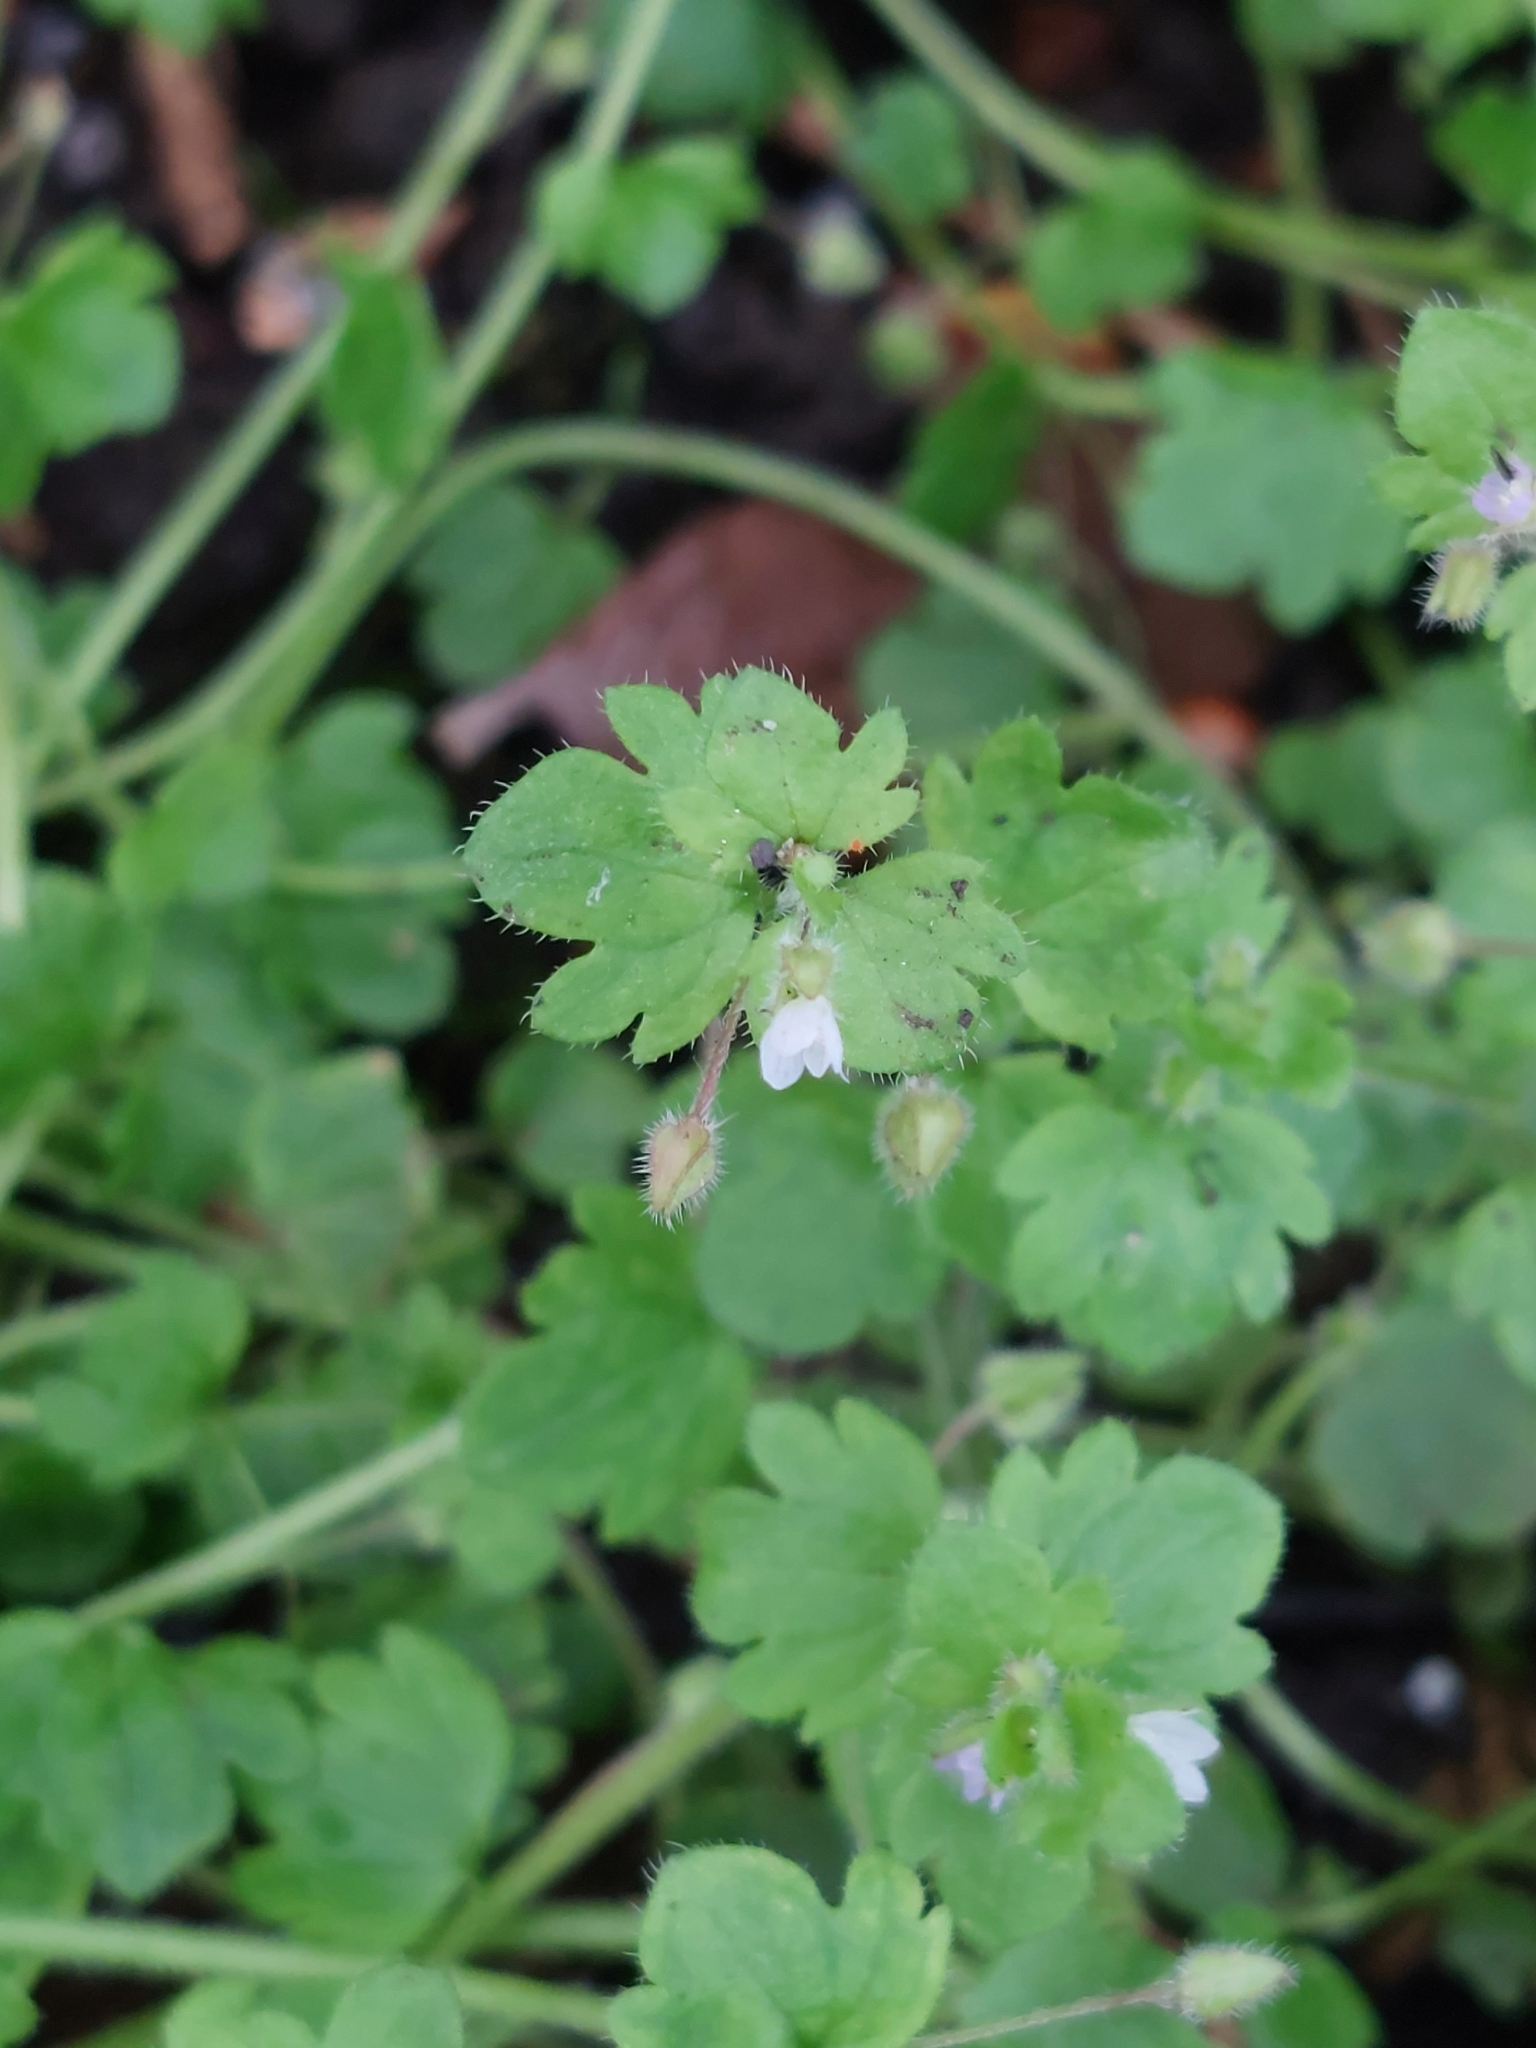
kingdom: Plantae
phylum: Tracheophyta
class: Magnoliopsida
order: Lamiales
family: Plantaginaceae
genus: Veronica
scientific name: Veronica hederifolia
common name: Ivy-leaved speedwell
